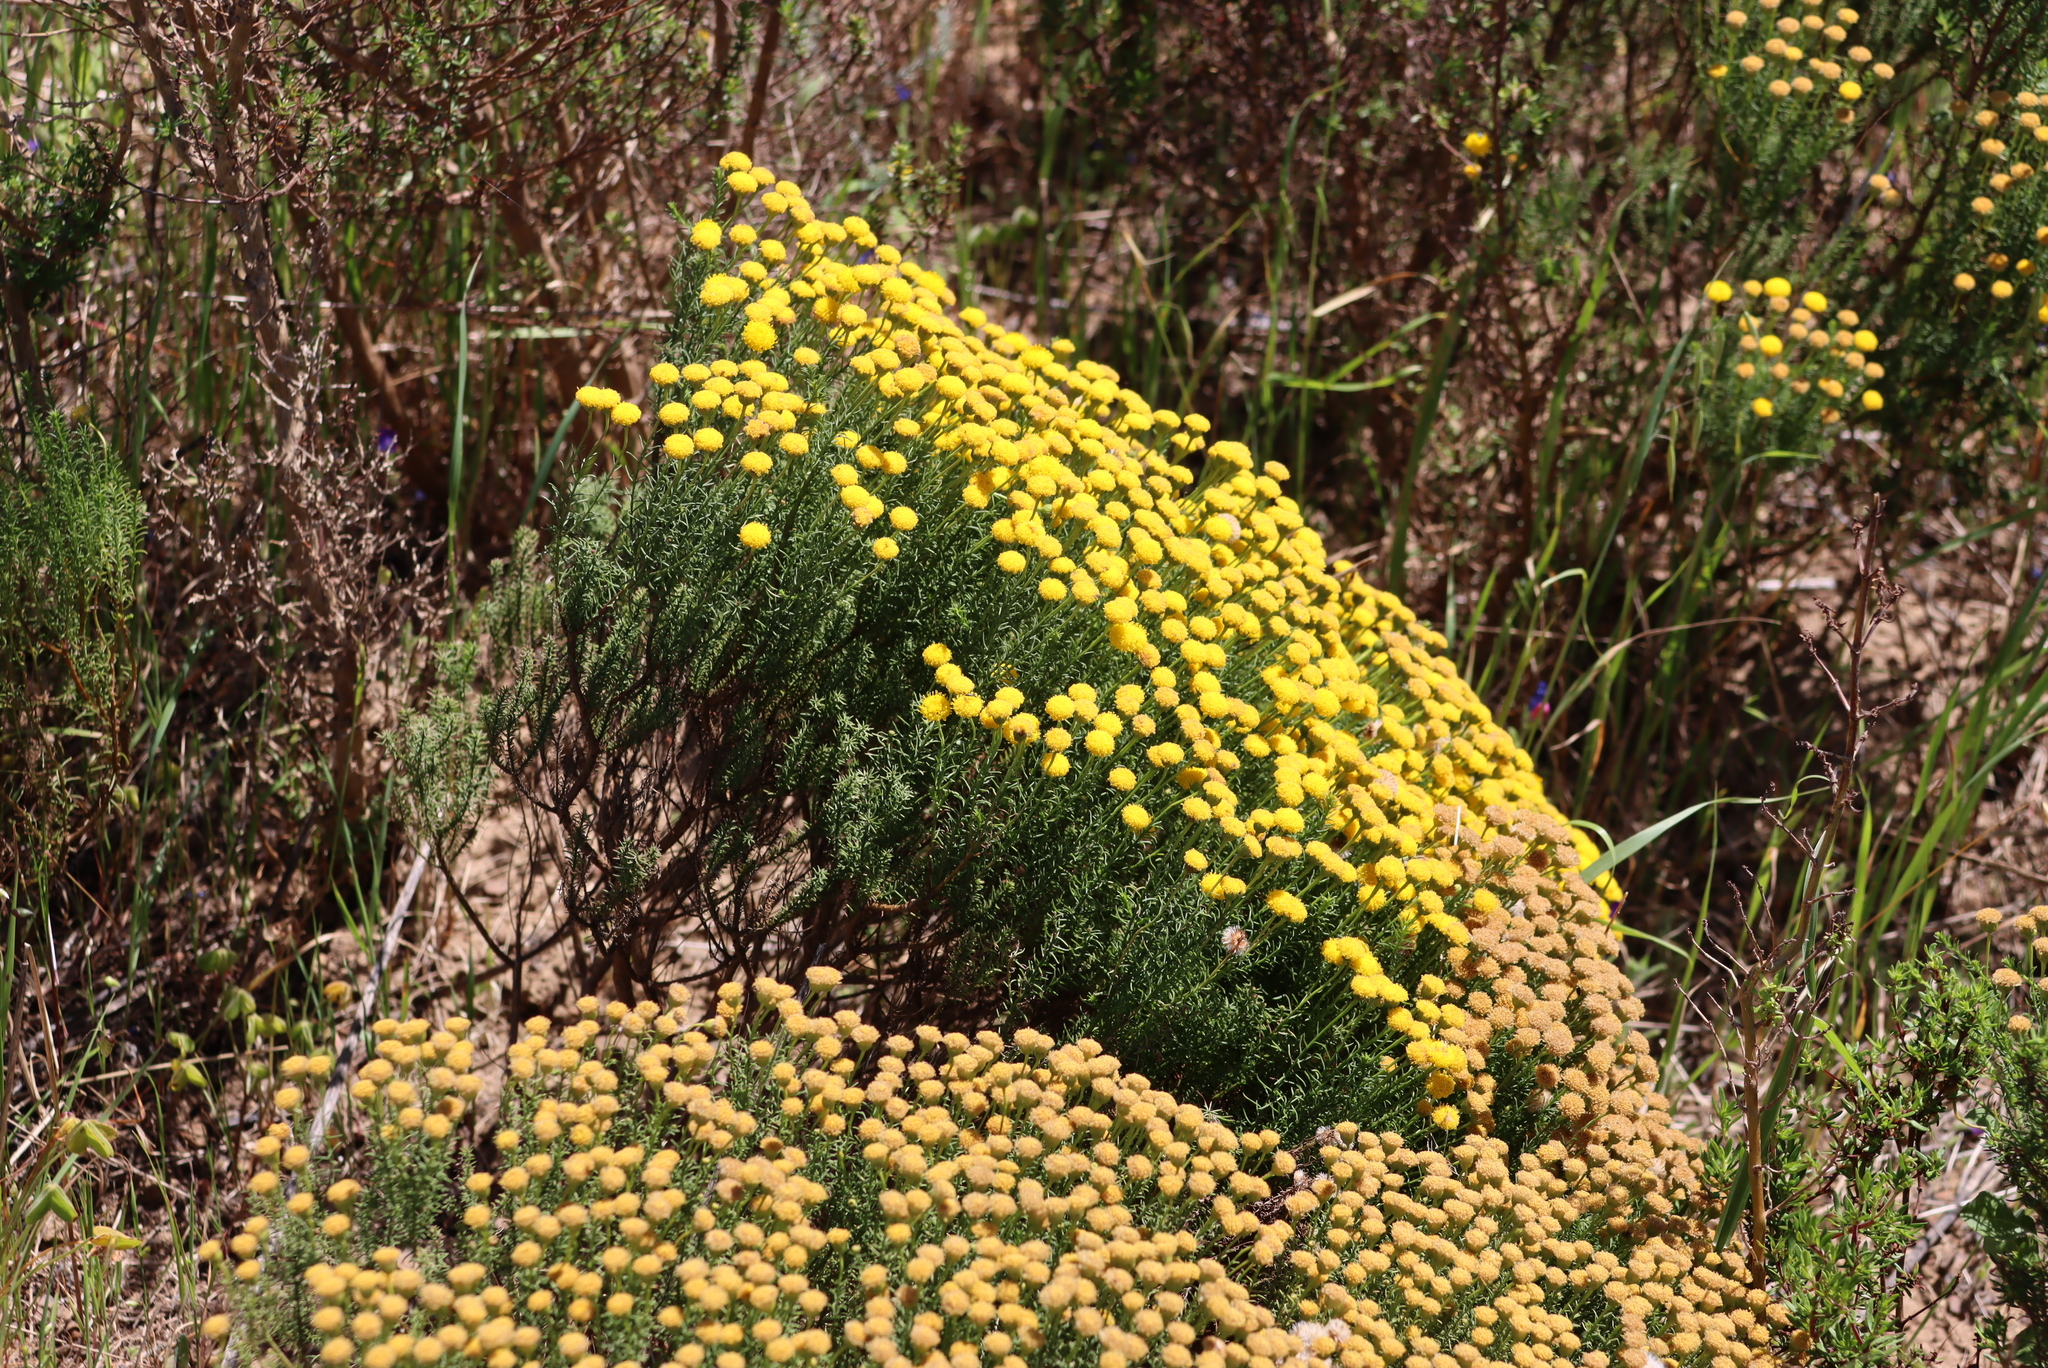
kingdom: Plantae
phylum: Tracheophyta
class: Magnoliopsida
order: Asterales
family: Asteraceae
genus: Chrysocoma
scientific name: Chrysocoma cernua
